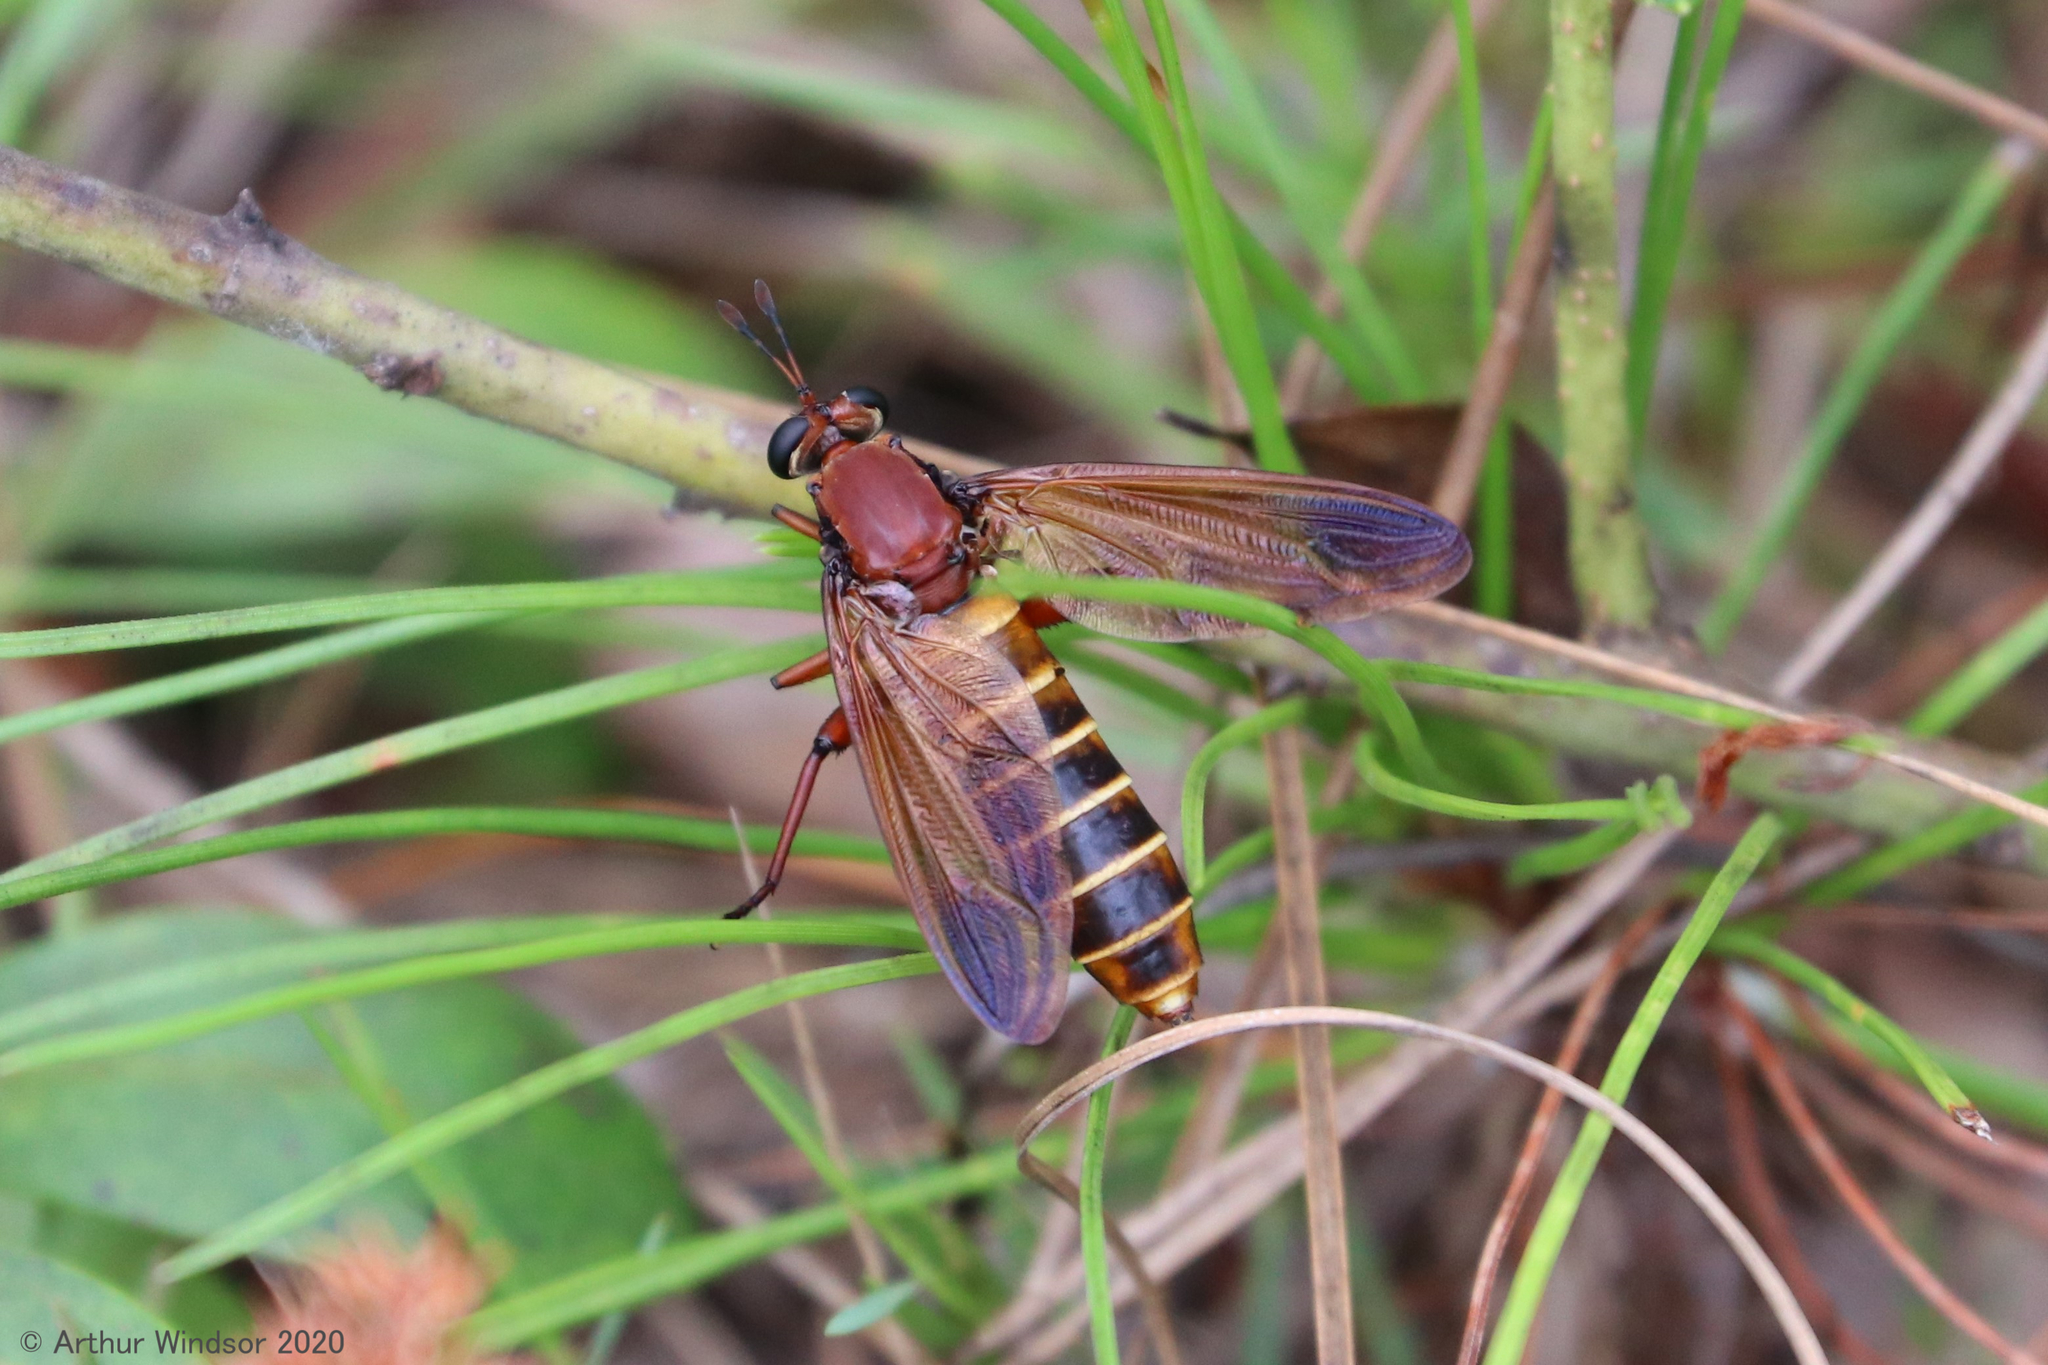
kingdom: Animalia
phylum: Arthropoda
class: Insecta
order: Diptera
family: Mydidae
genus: Mydas
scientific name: Mydas maculiventris
